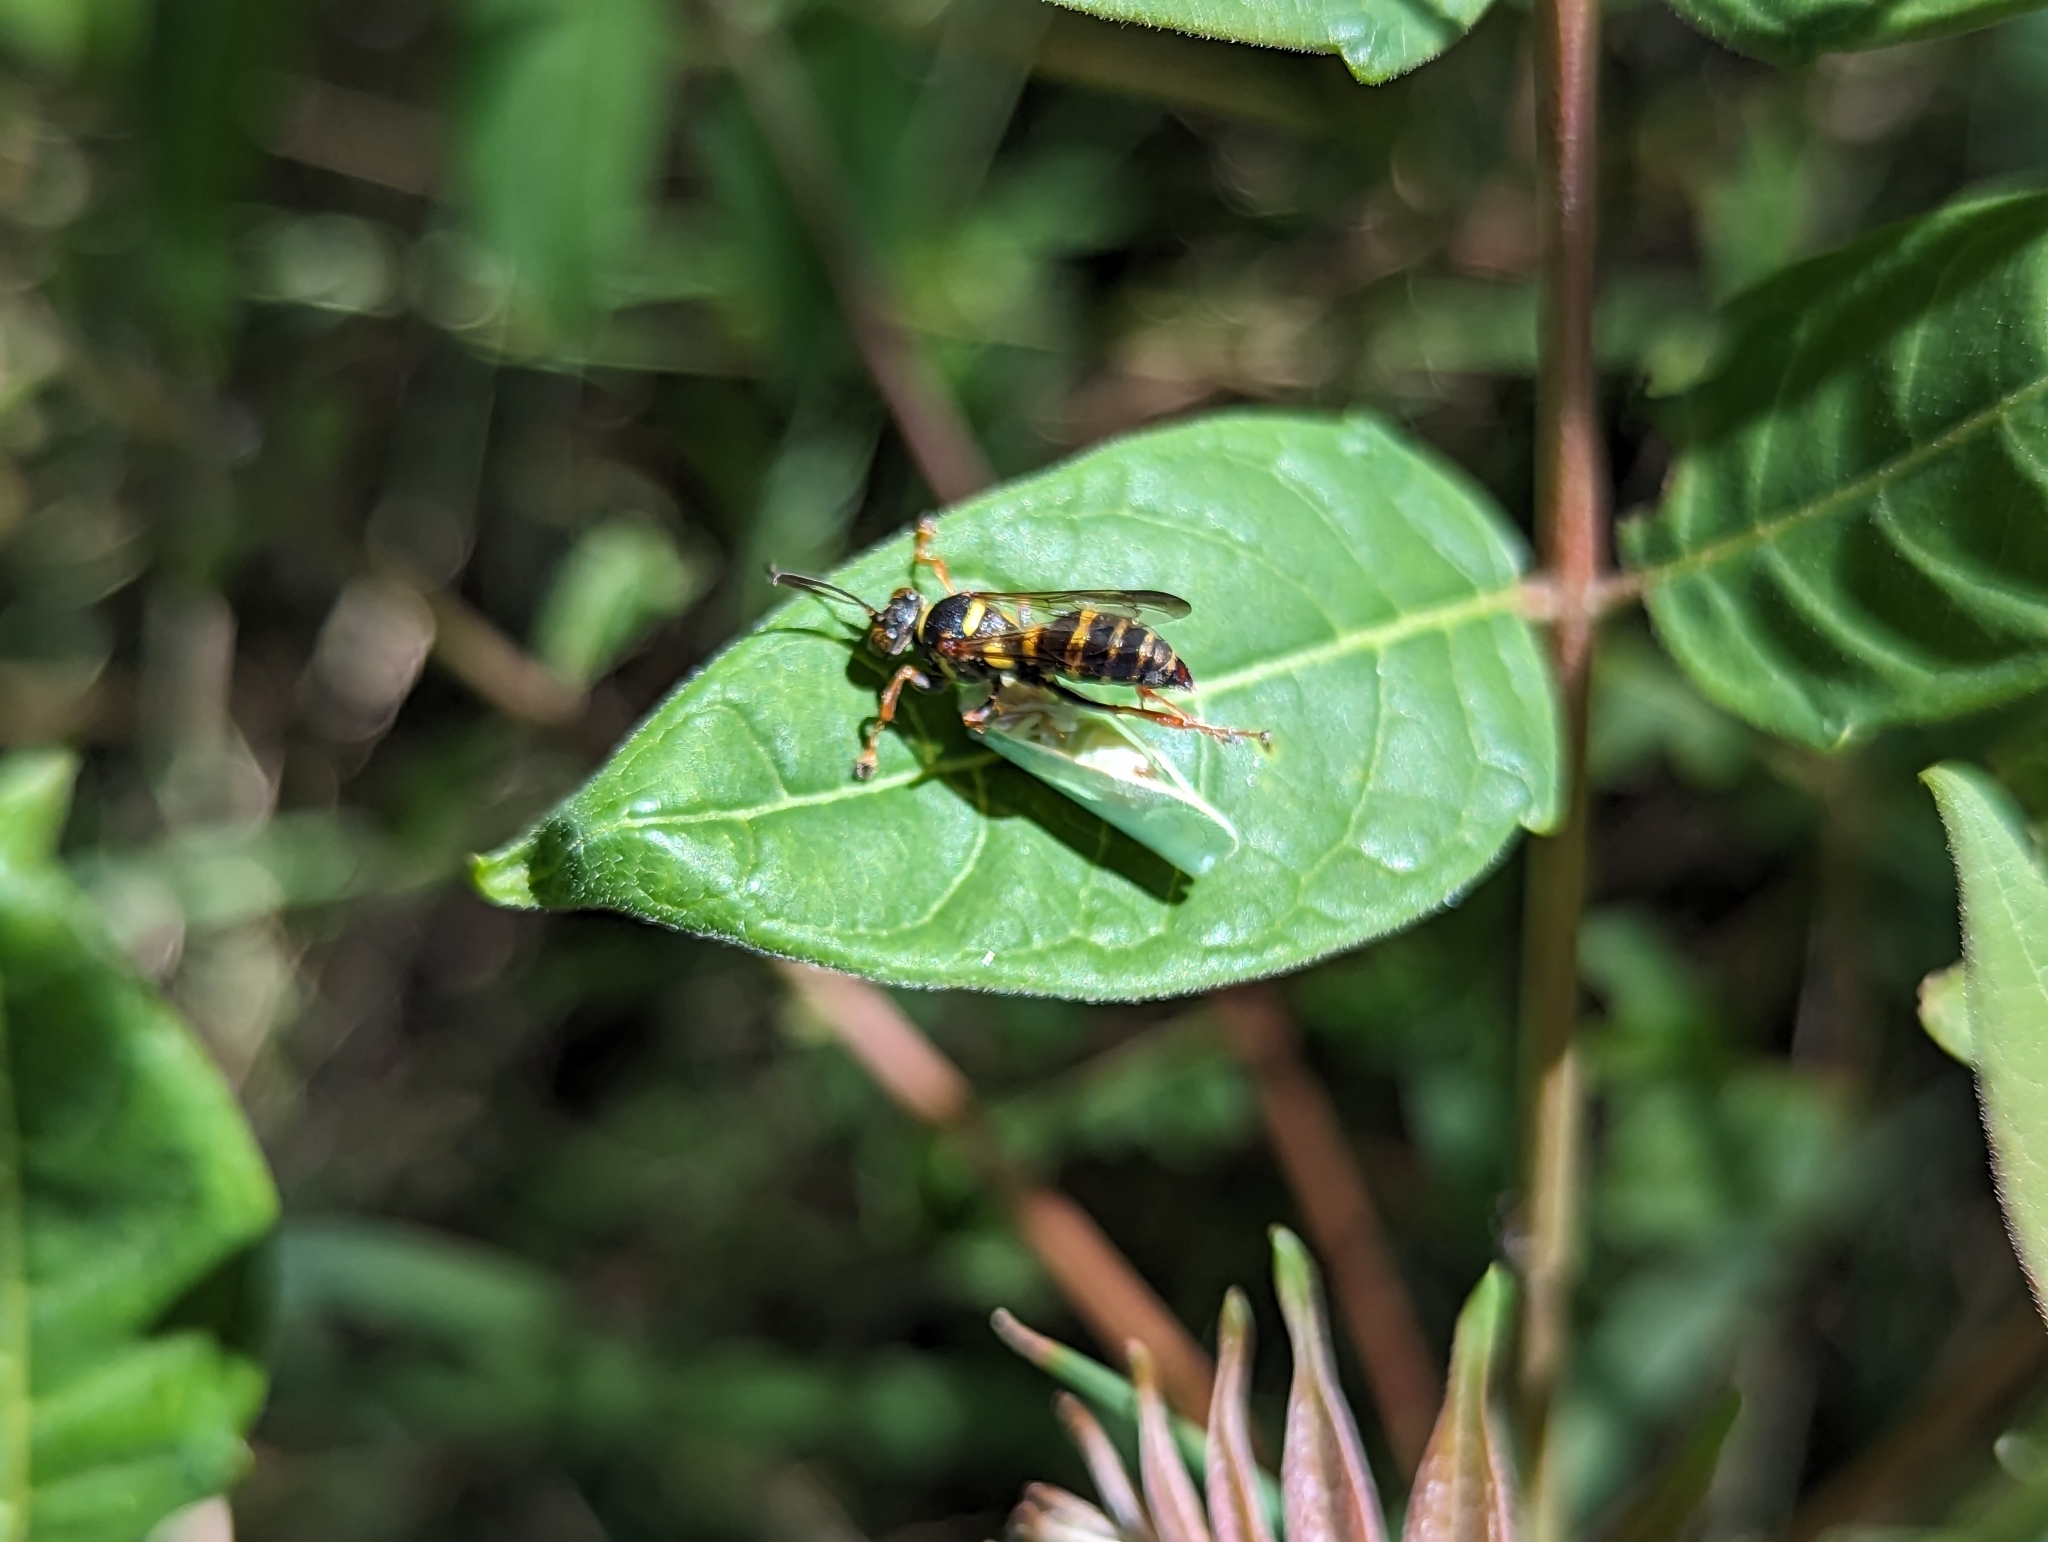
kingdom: Animalia
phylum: Arthropoda
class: Insecta
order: Hymenoptera
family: Crabronidae
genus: Psammaletes
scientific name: Psammaletes mexicanus
